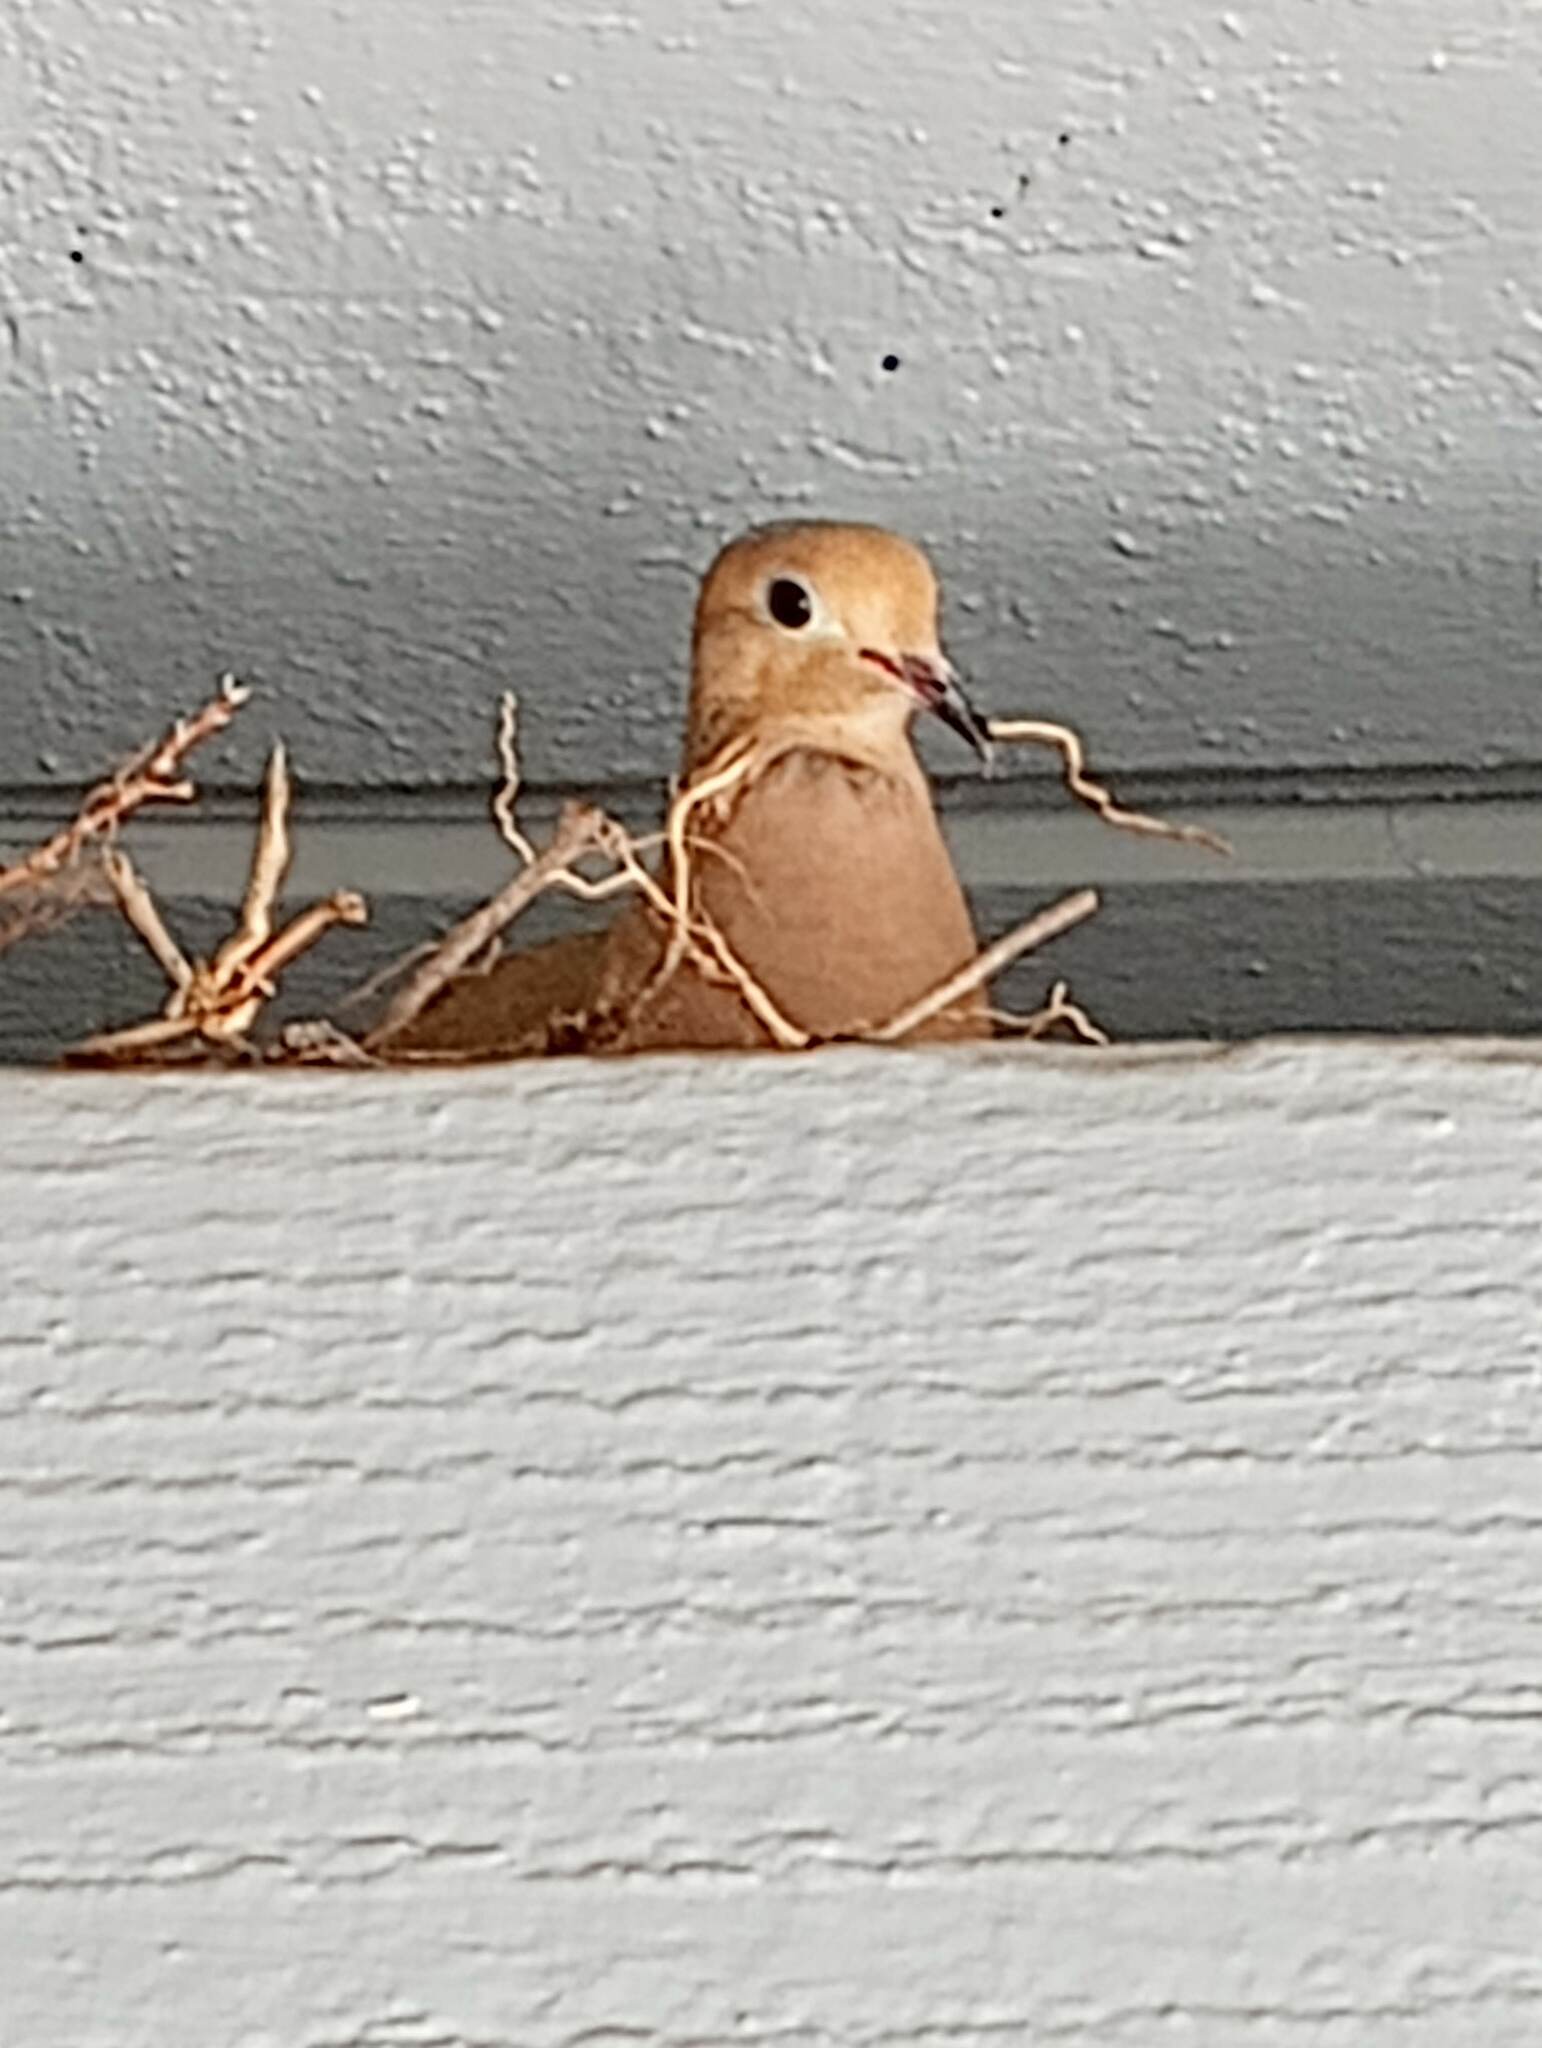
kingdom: Animalia
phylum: Chordata
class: Aves
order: Columbiformes
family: Columbidae
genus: Zenaida
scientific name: Zenaida macroura
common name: Mourning dove
